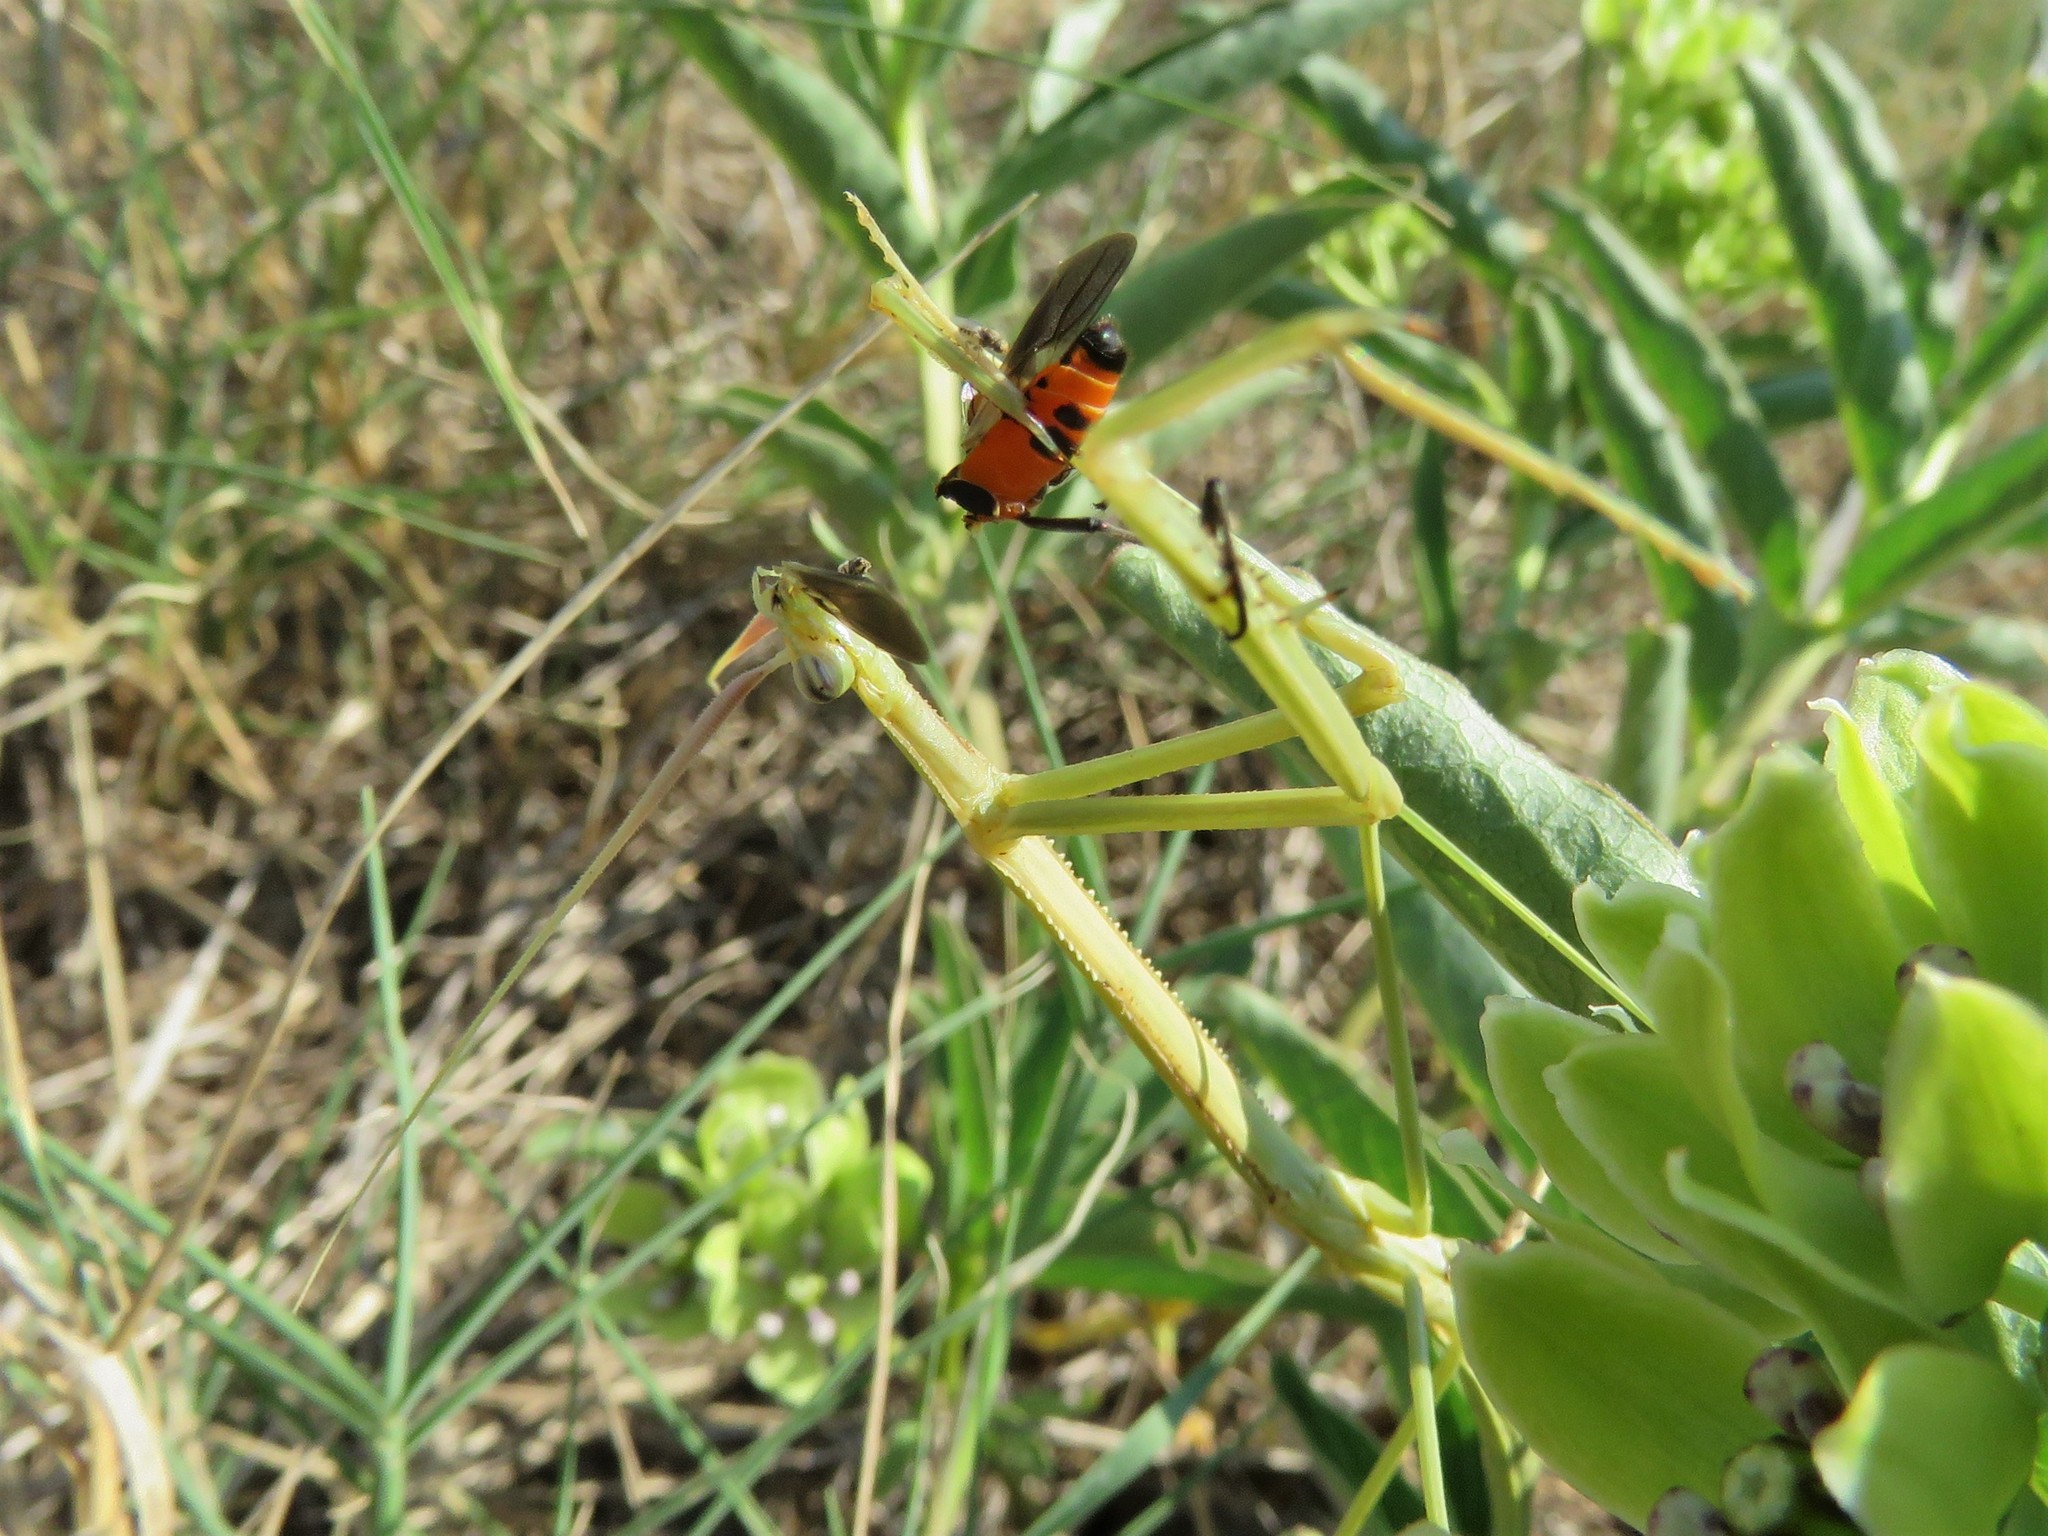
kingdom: Animalia
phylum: Arthropoda
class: Insecta
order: Mantodea
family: Coptopterygidae
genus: Brunneria
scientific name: Brunneria borealis
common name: Mantis
